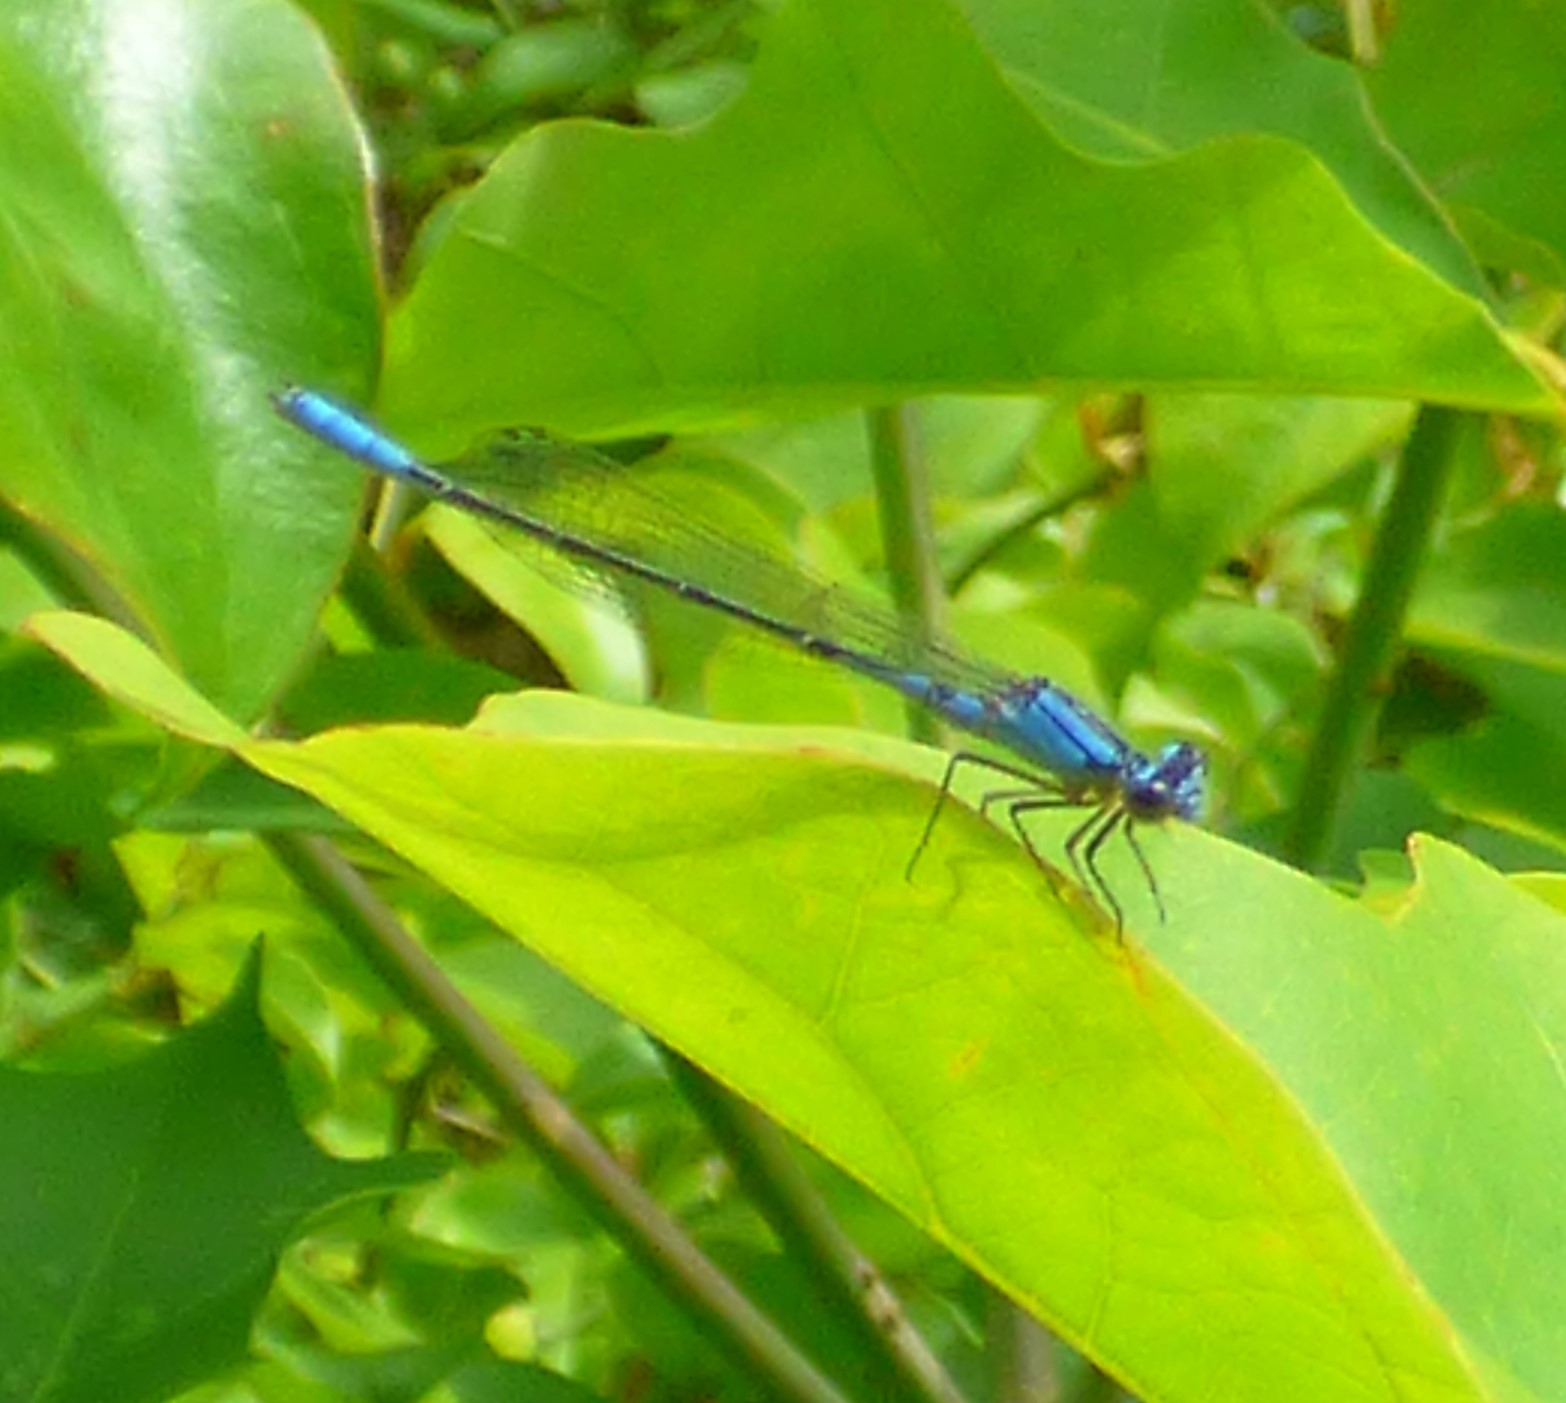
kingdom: Animalia
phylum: Arthropoda
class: Insecta
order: Odonata
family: Coenagrionidae
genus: Enallagma
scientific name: Enallagma aspersum
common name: Azure bluet
